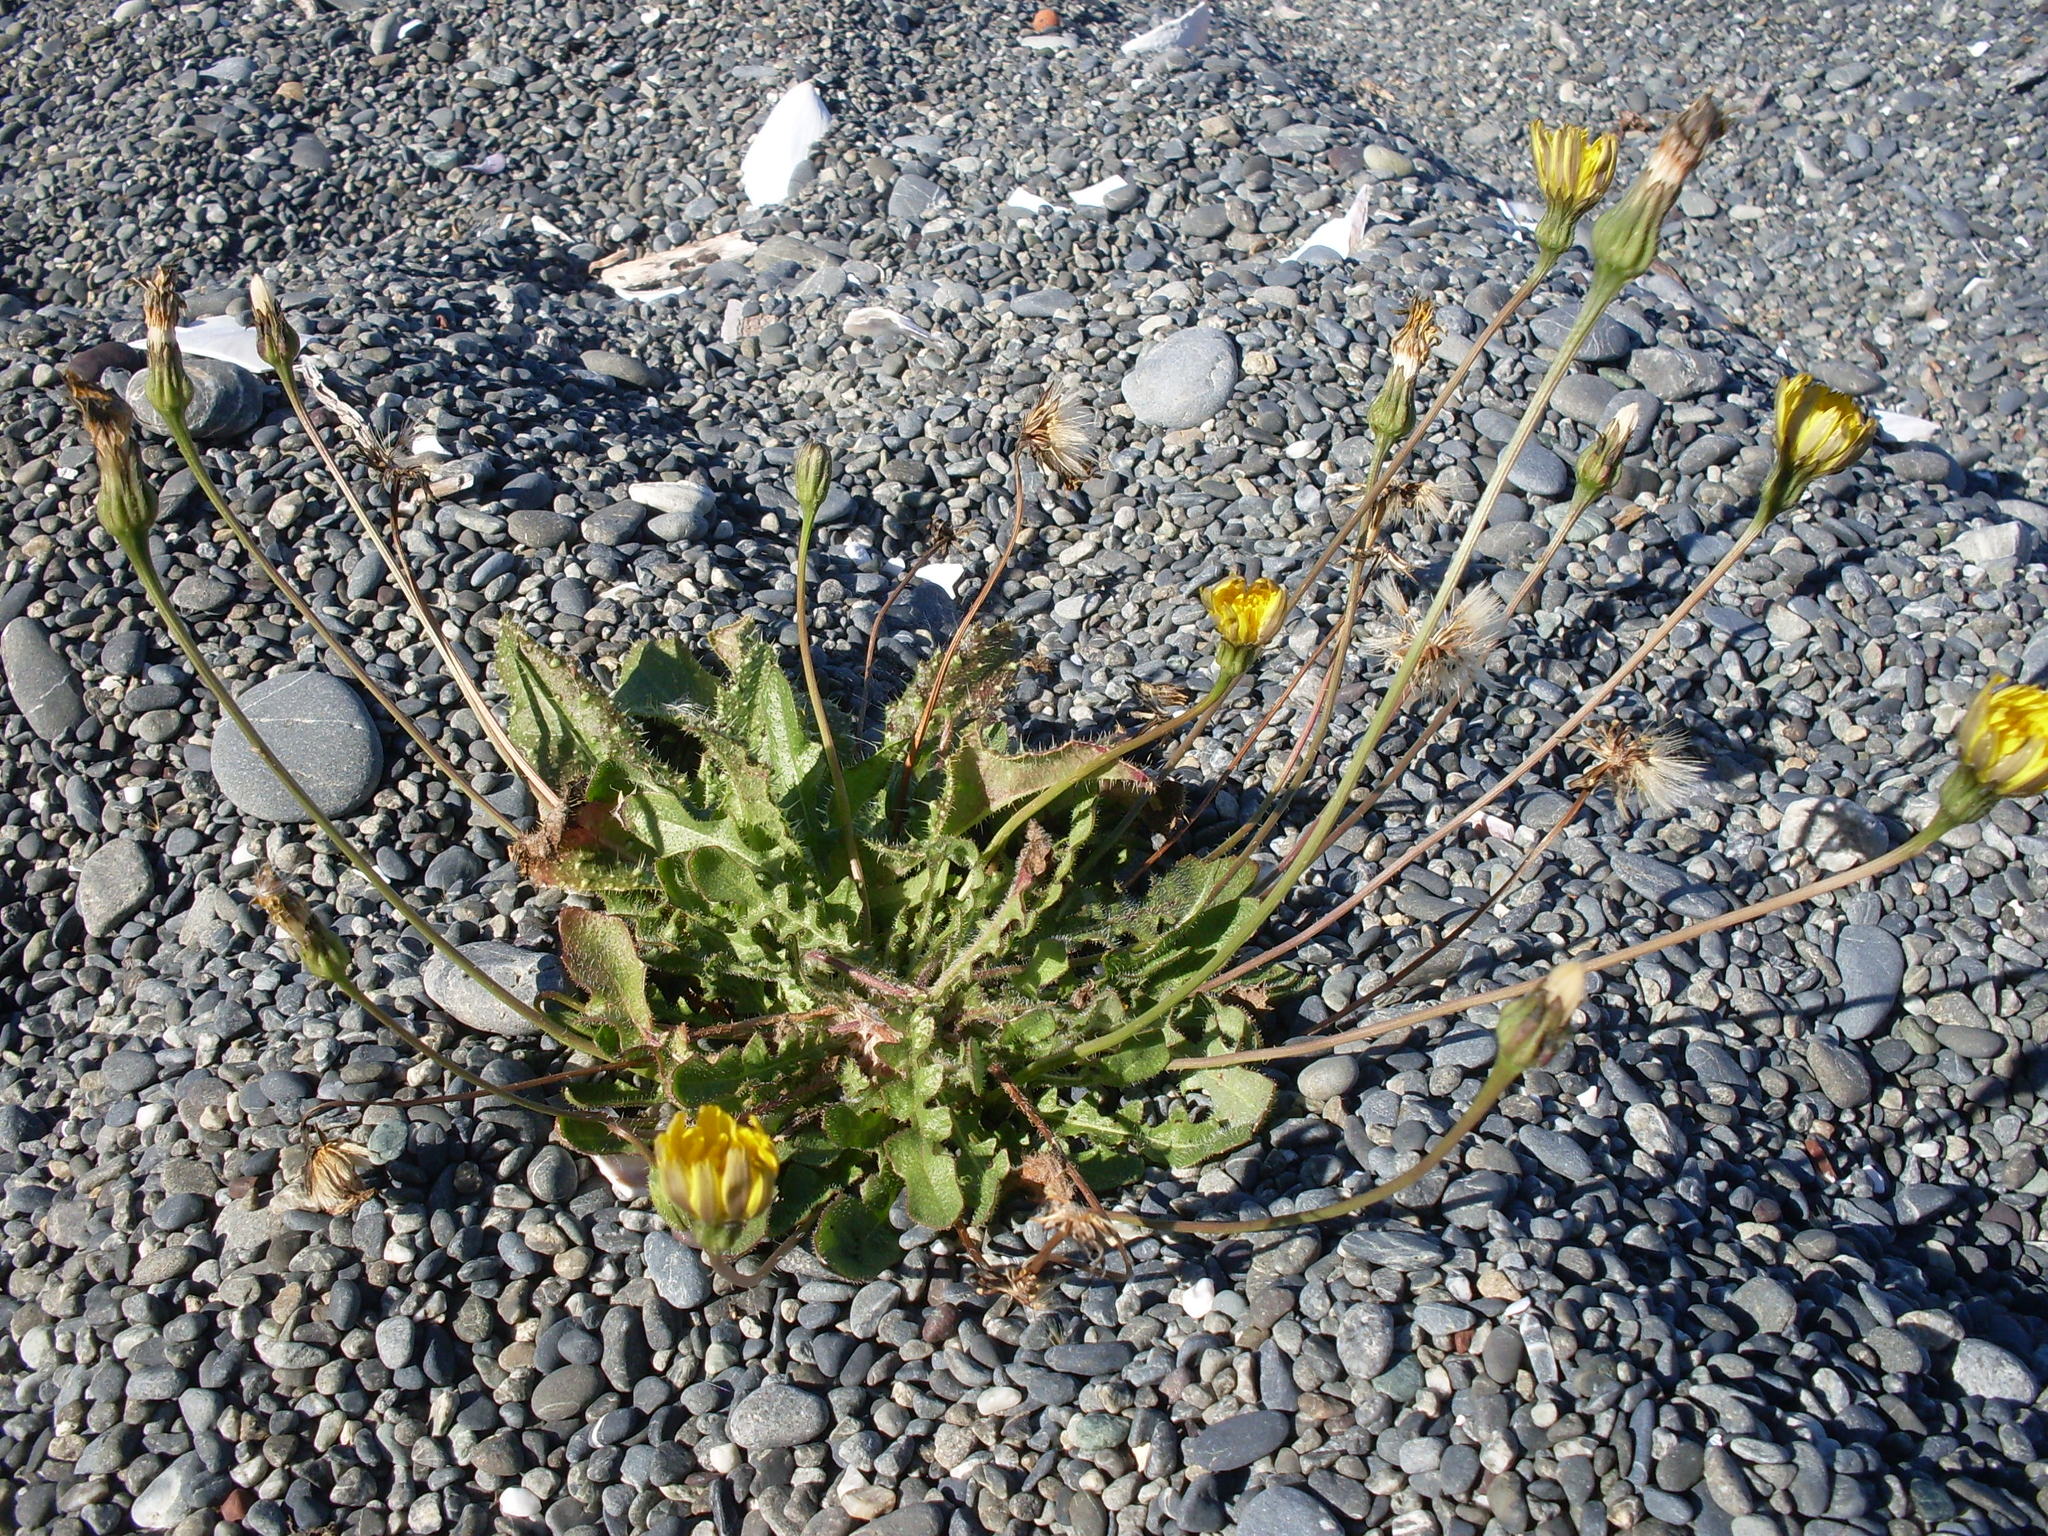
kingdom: Plantae
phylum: Tracheophyta
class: Magnoliopsida
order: Asterales
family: Asteraceae
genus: Thrincia
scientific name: Thrincia saxatilis
